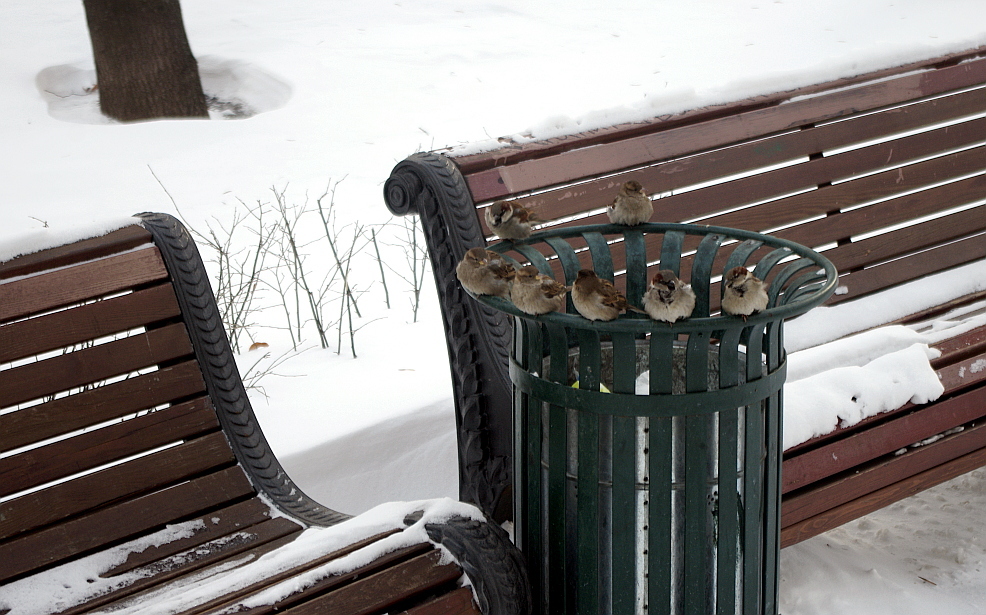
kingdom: Animalia
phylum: Chordata
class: Aves
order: Passeriformes
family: Passeridae
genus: Passer
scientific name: Passer domesticus
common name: House sparrow
